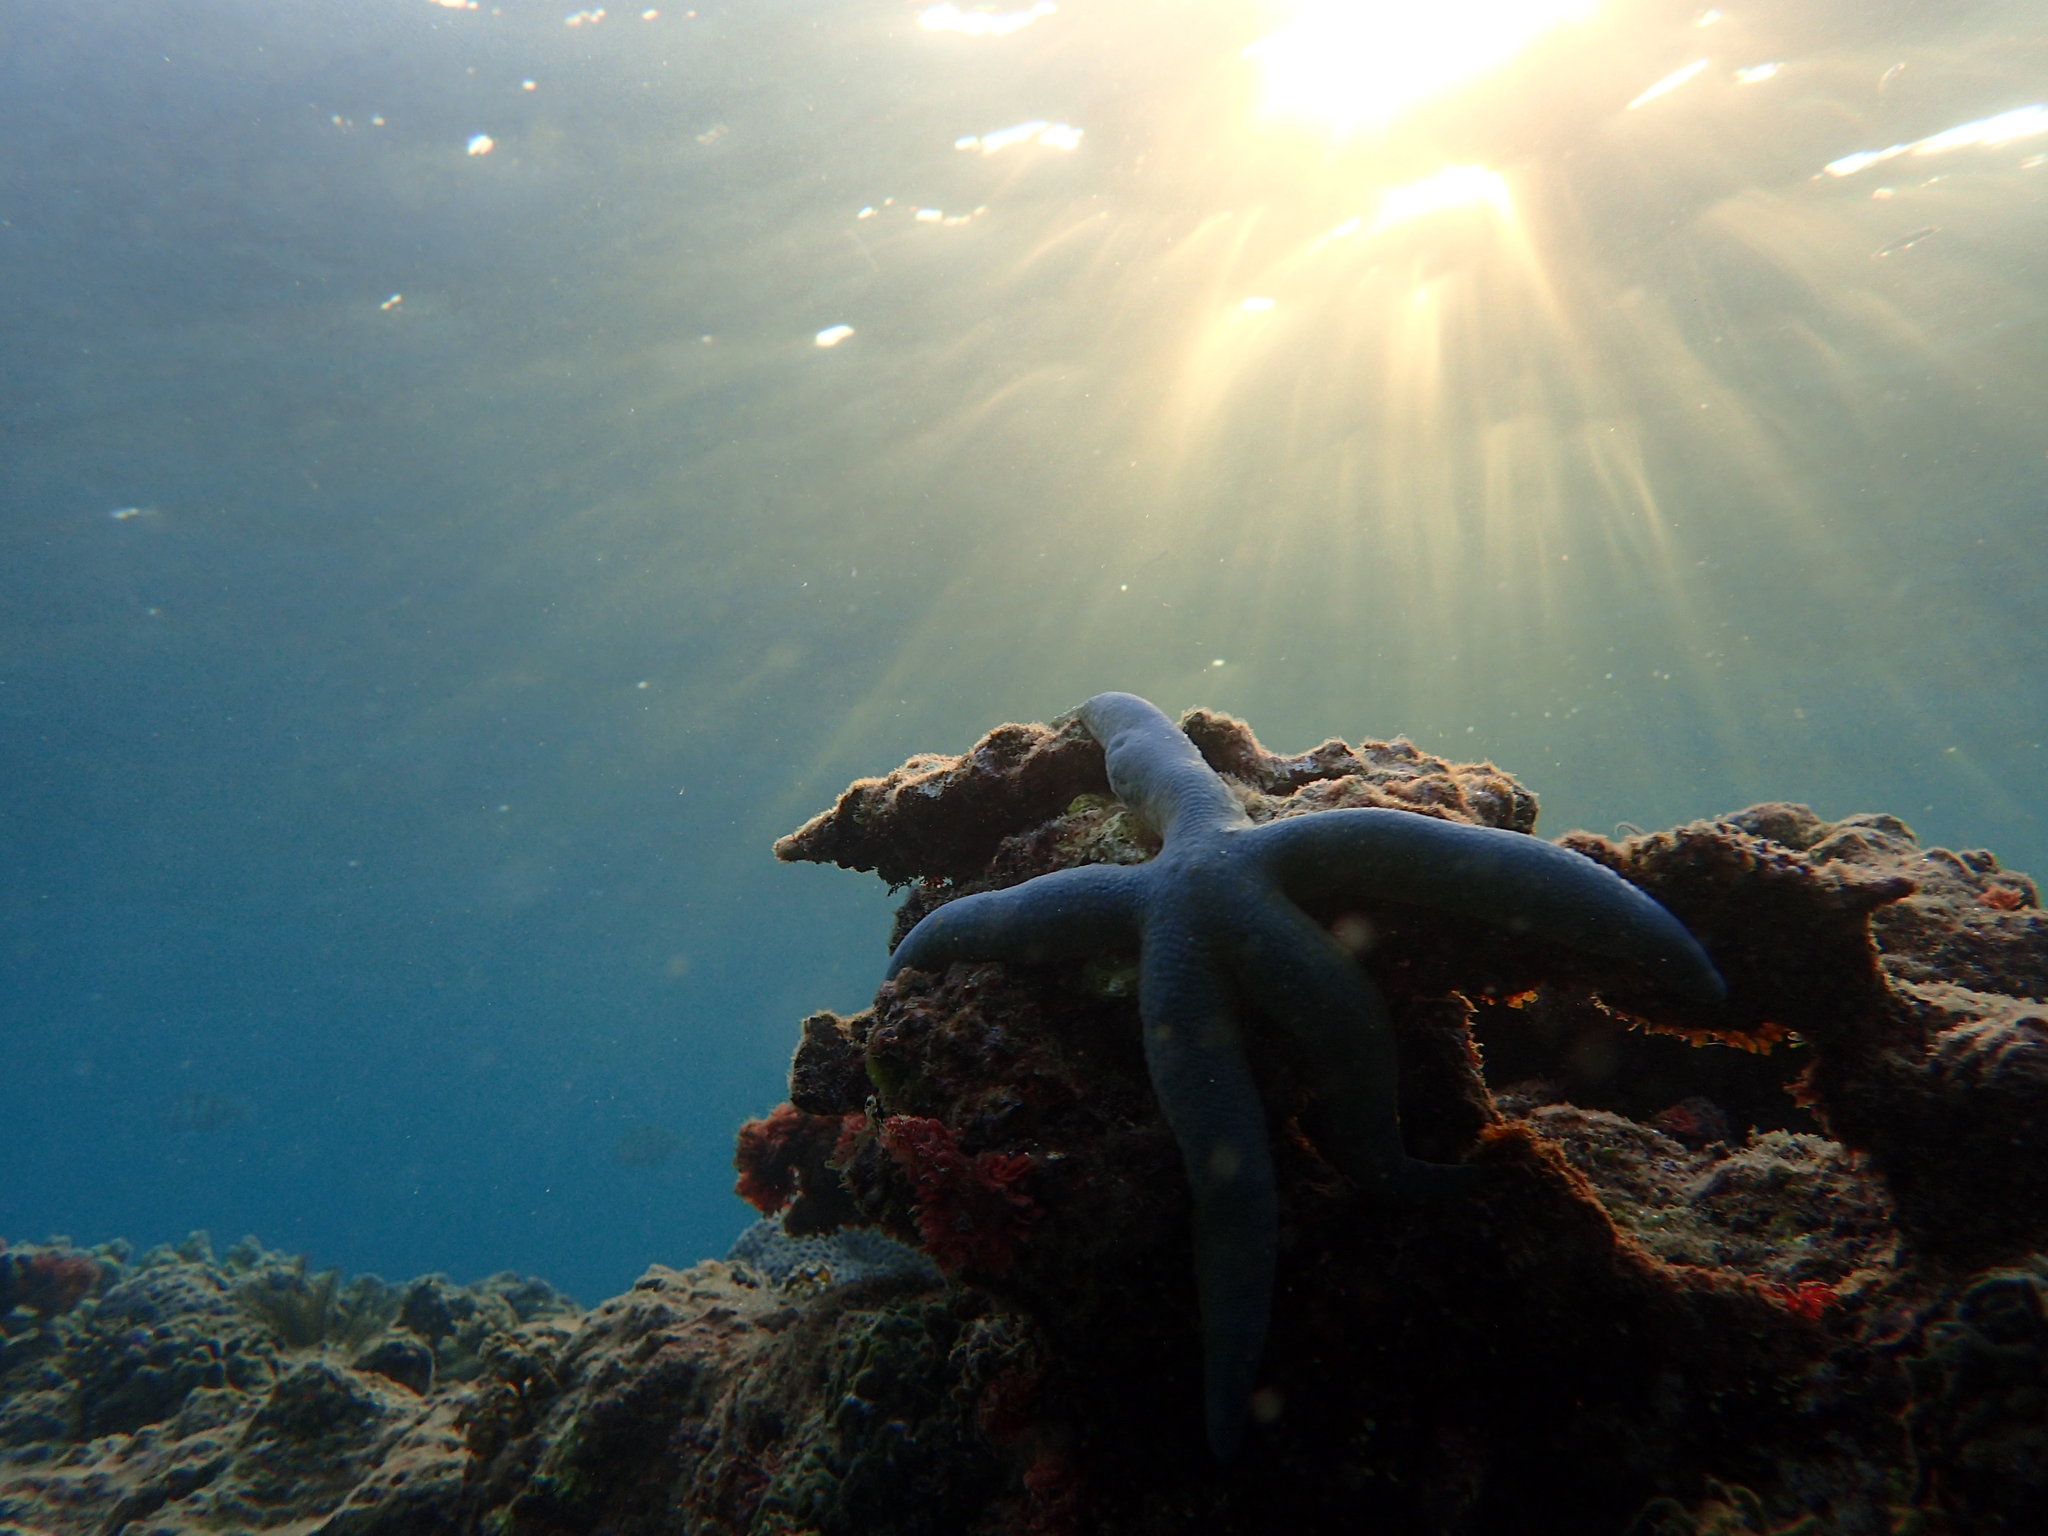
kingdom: Animalia
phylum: Echinodermata
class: Asteroidea
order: Valvatida
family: Ophidiasteridae
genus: Linckia
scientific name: Linckia laevigata
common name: Azure sea star
